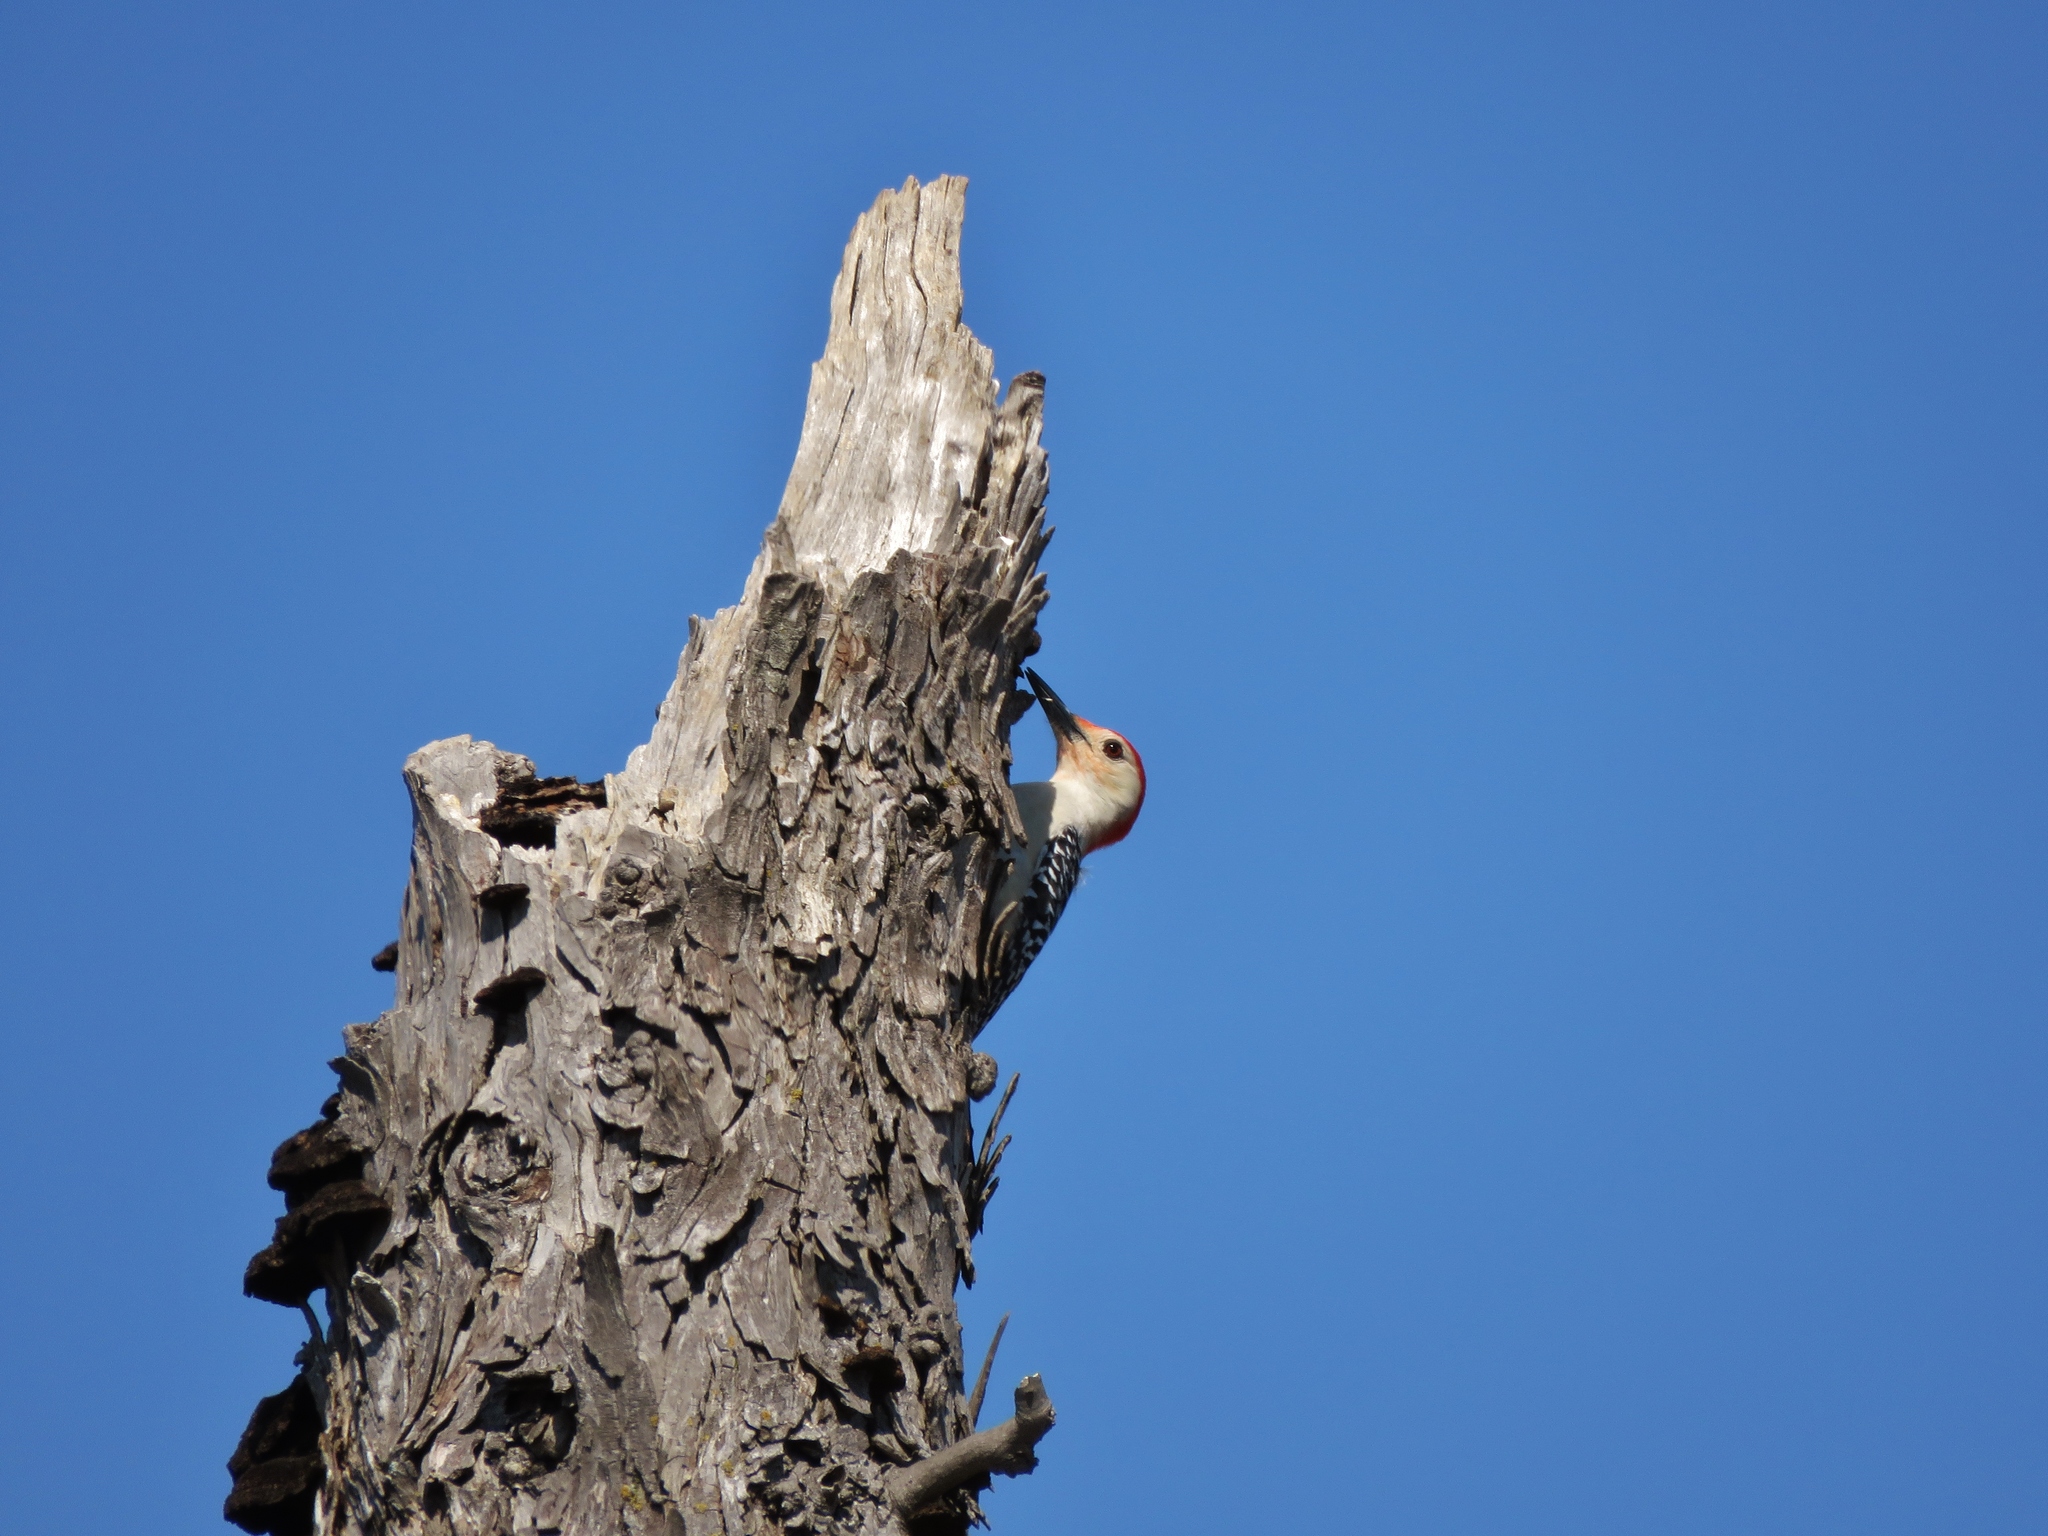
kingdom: Animalia
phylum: Chordata
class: Aves
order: Piciformes
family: Picidae
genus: Melanerpes
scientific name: Melanerpes carolinus
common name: Red-bellied woodpecker
